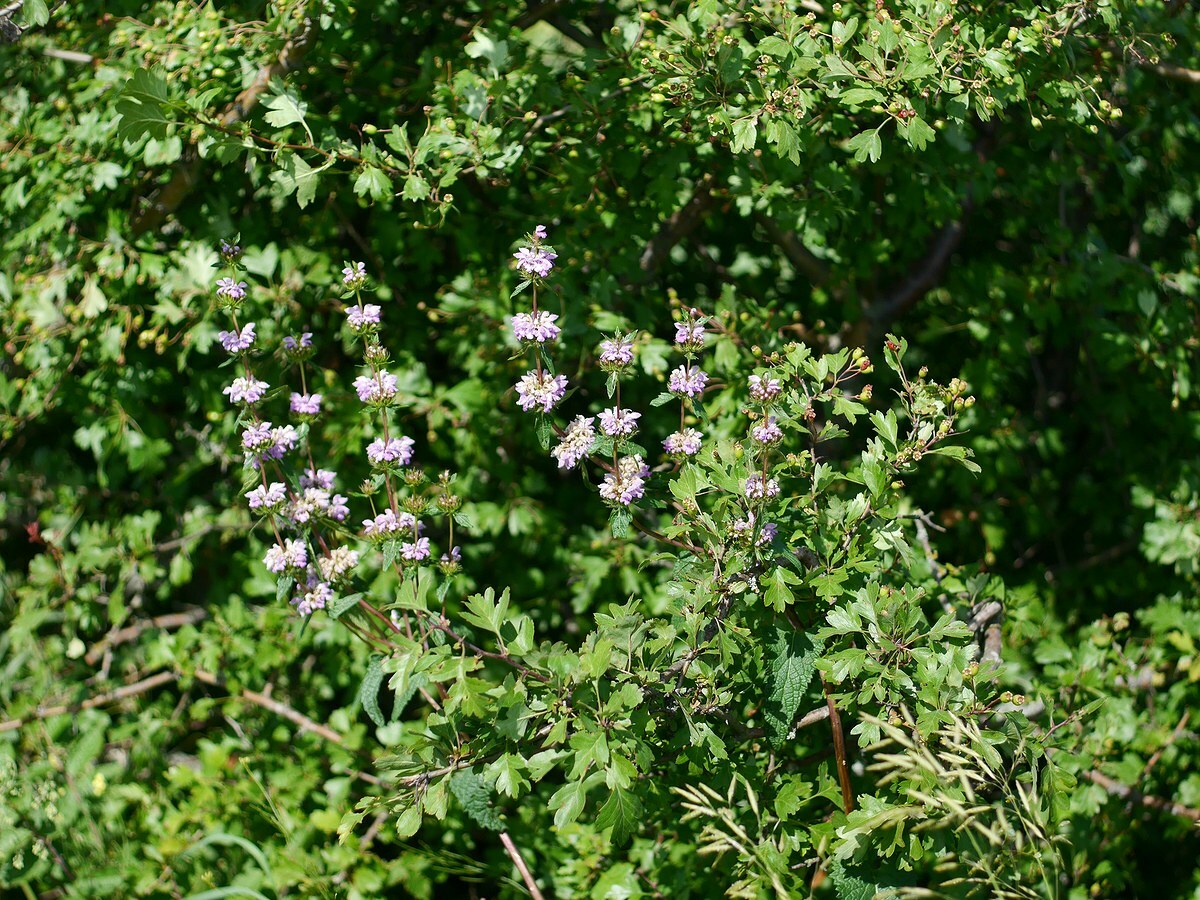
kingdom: Plantae
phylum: Tracheophyta
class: Magnoliopsida
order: Lamiales
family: Lamiaceae
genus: Phlomoides
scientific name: Phlomoides tuberosa
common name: Tuberous jerusalem sage
